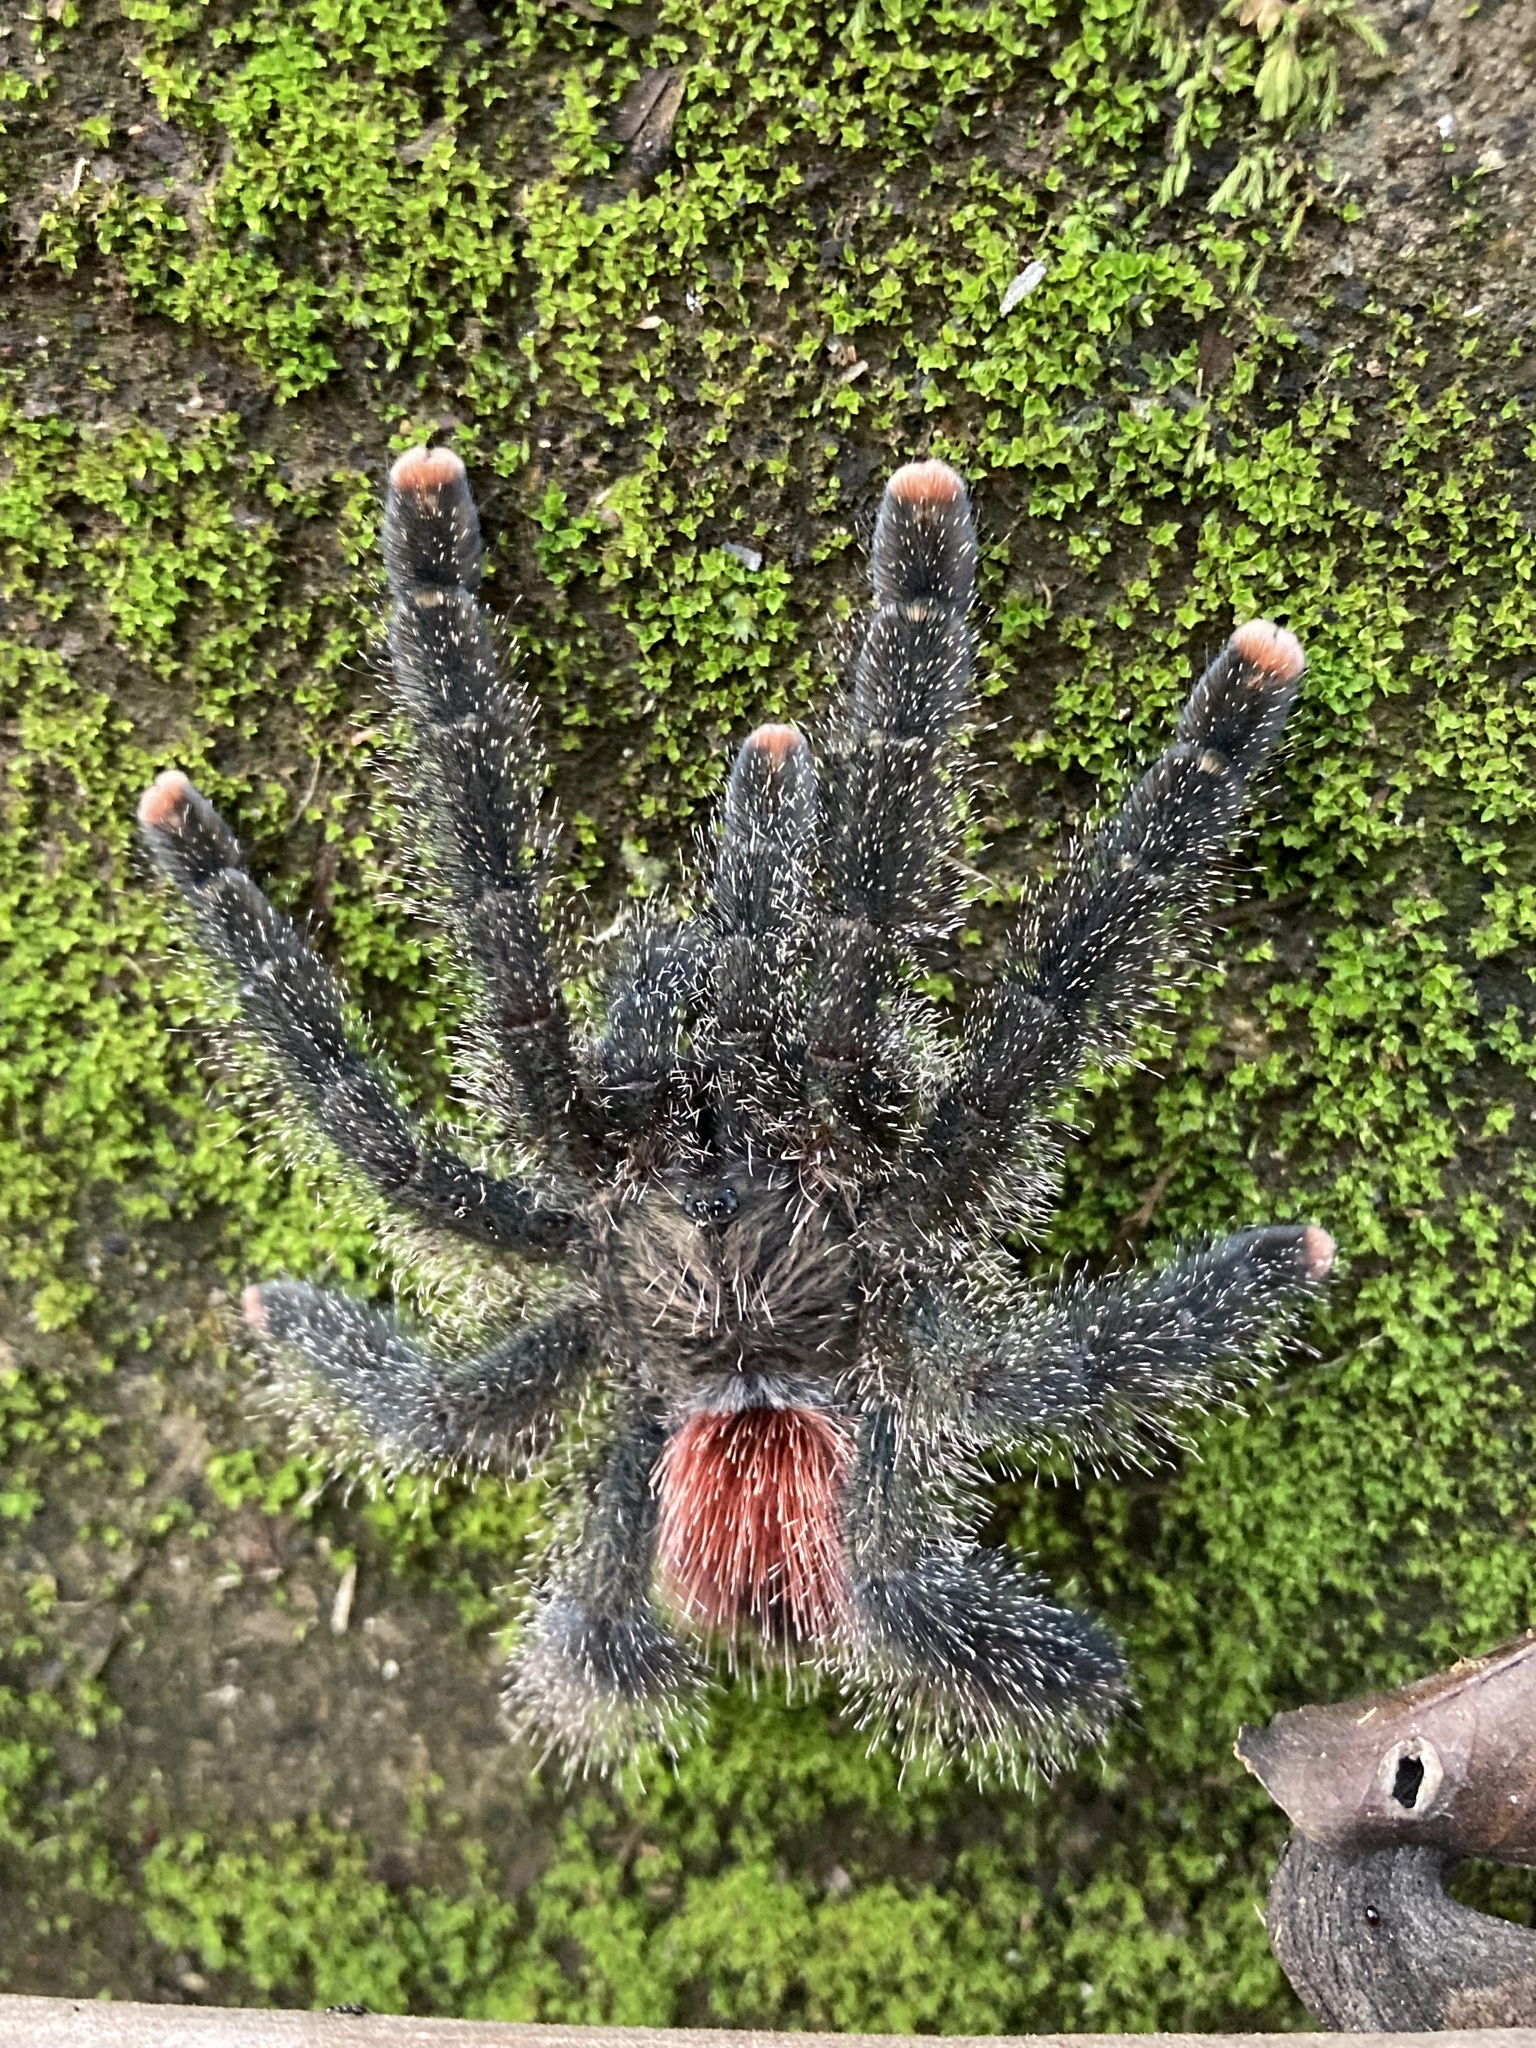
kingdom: Animalia
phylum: Arthropoda
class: Arachnida
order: Araneae
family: Theraphosidae
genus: Avicularia
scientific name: Avicularia juruensis
